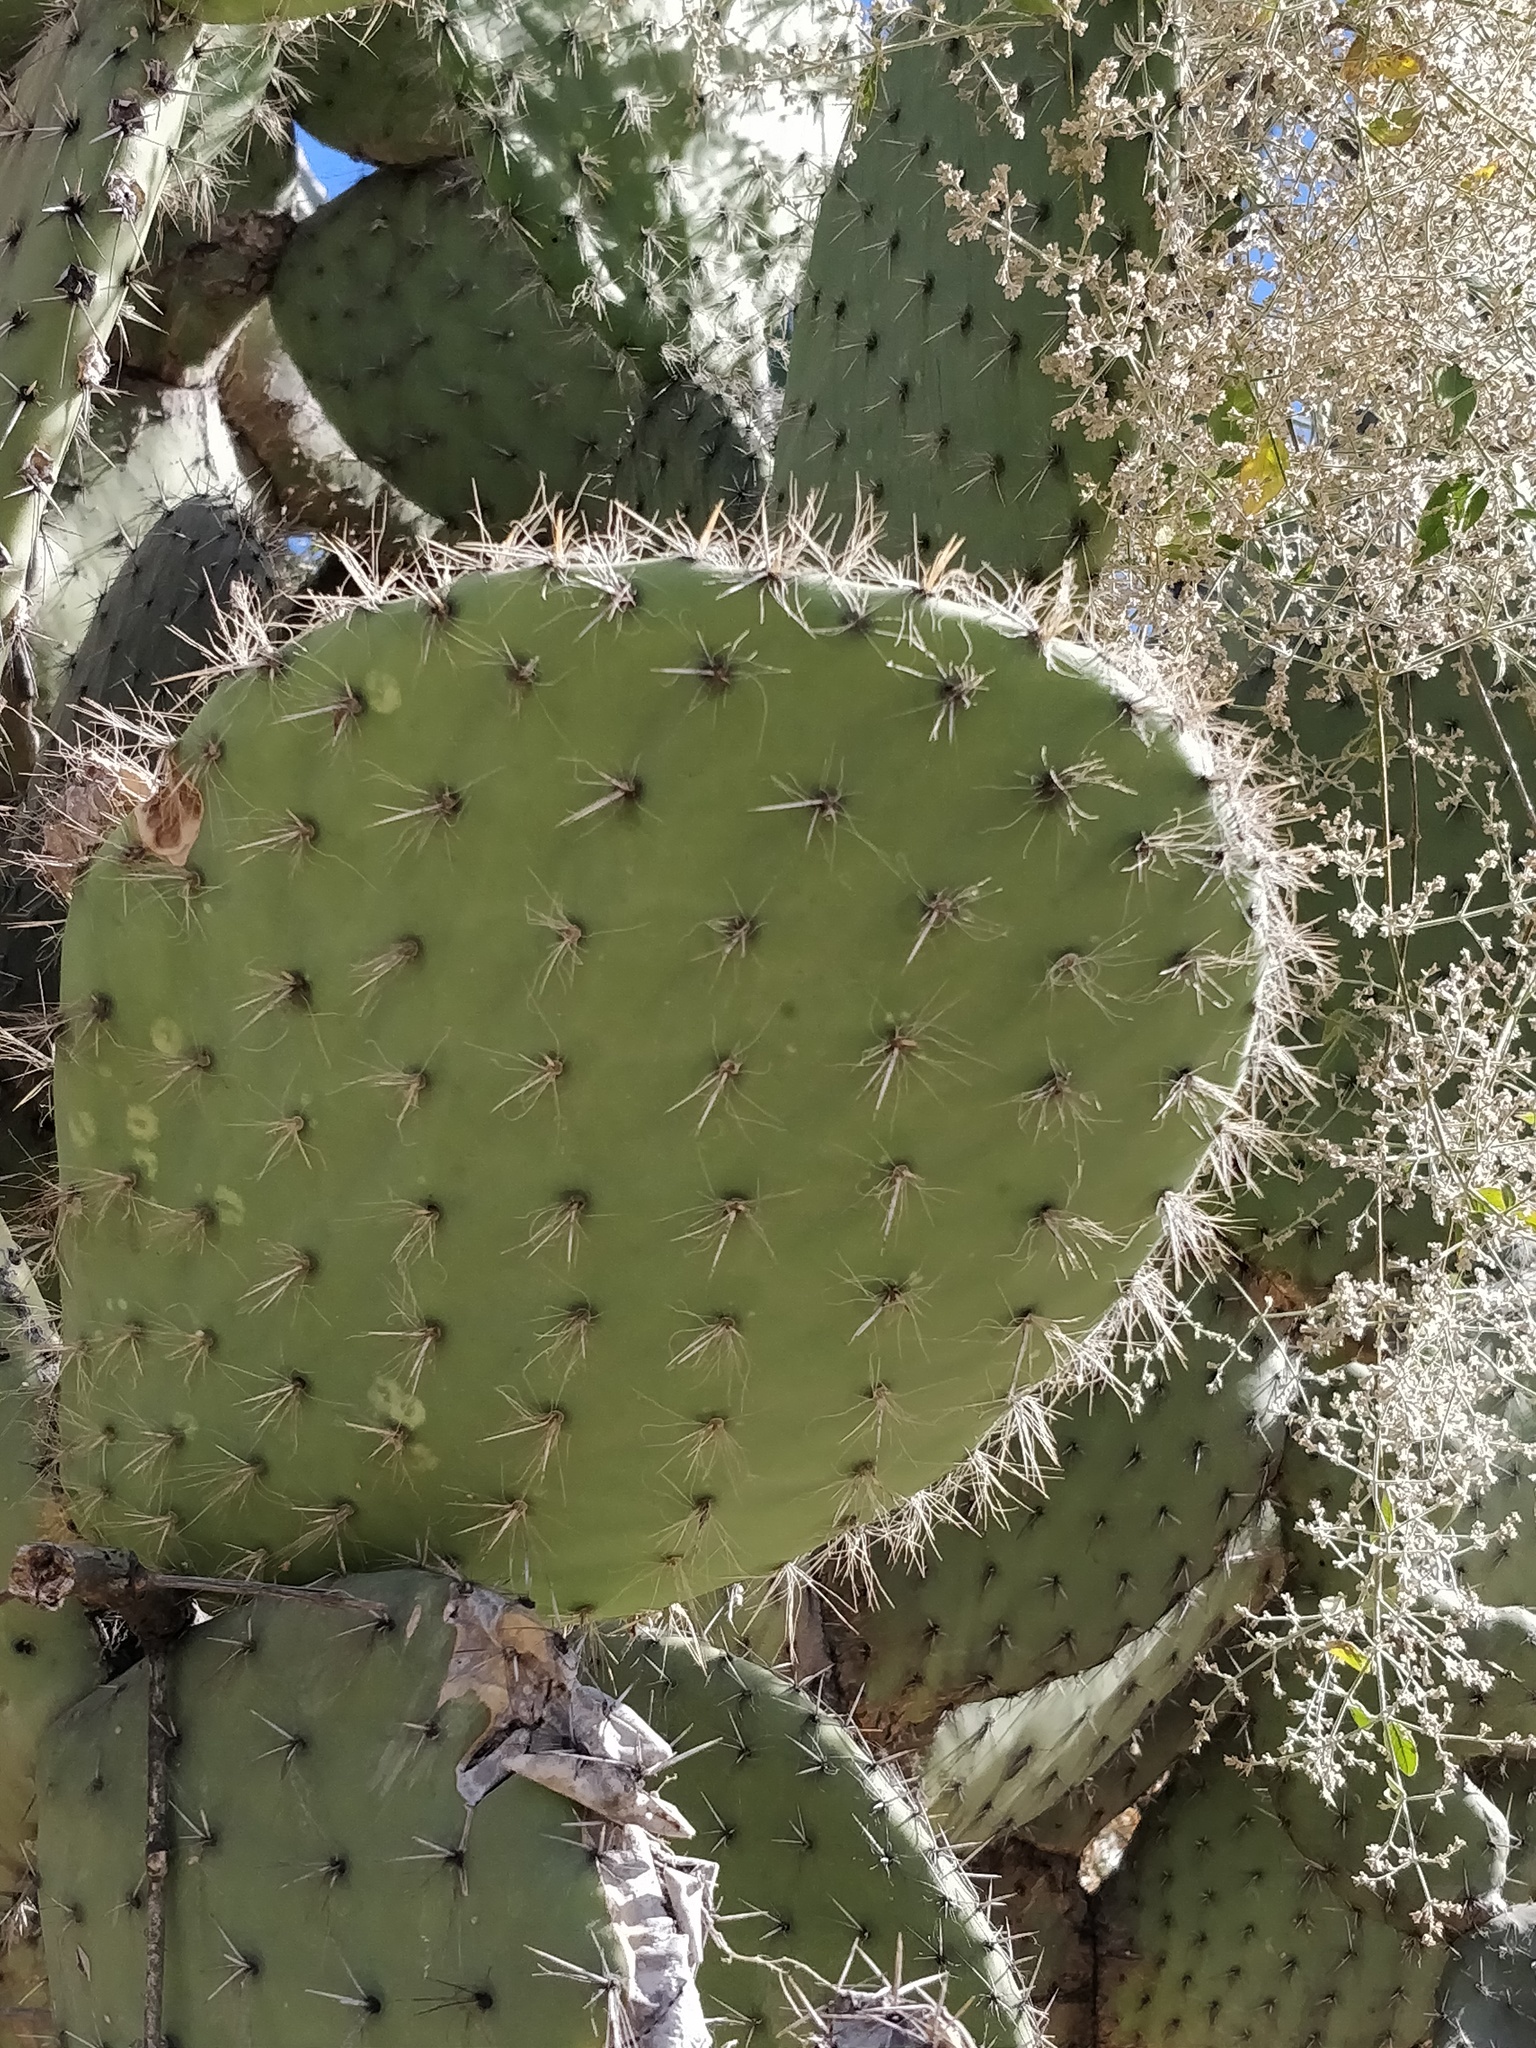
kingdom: Plantae
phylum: Tracheophyta
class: Magnoliopsida
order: Caryophyllales
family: Cactaceae
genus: Opuntia
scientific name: Opuntia pilifera
